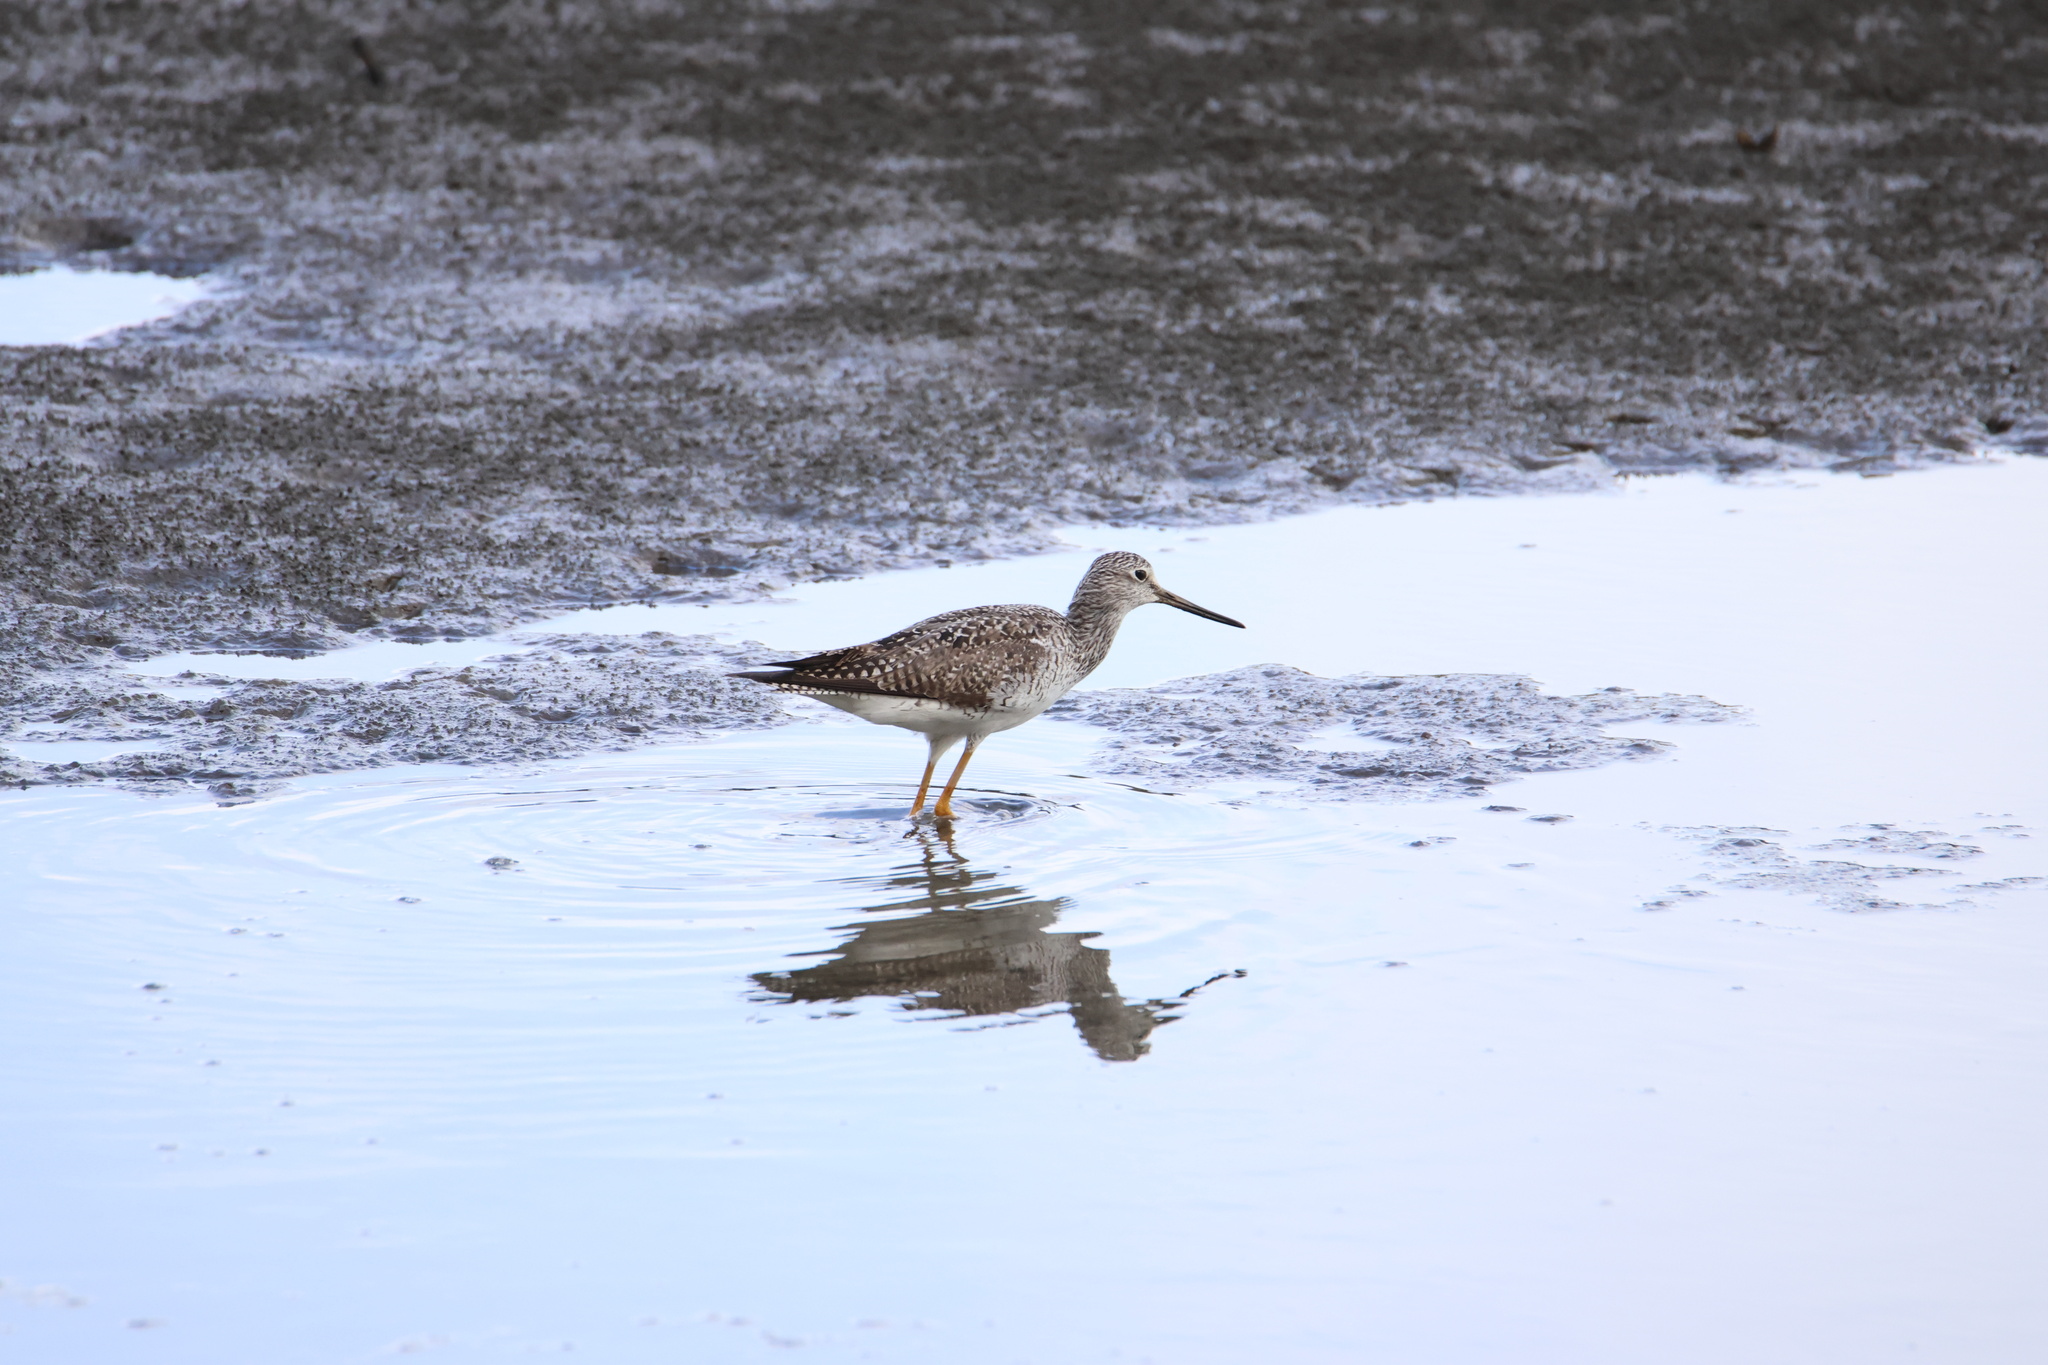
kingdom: Animalia
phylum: Chordata
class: Aves
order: Charadriiformes
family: Scolopacidae
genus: Tringa
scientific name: Tringa melanoleuca
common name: Greater yellowlegs
